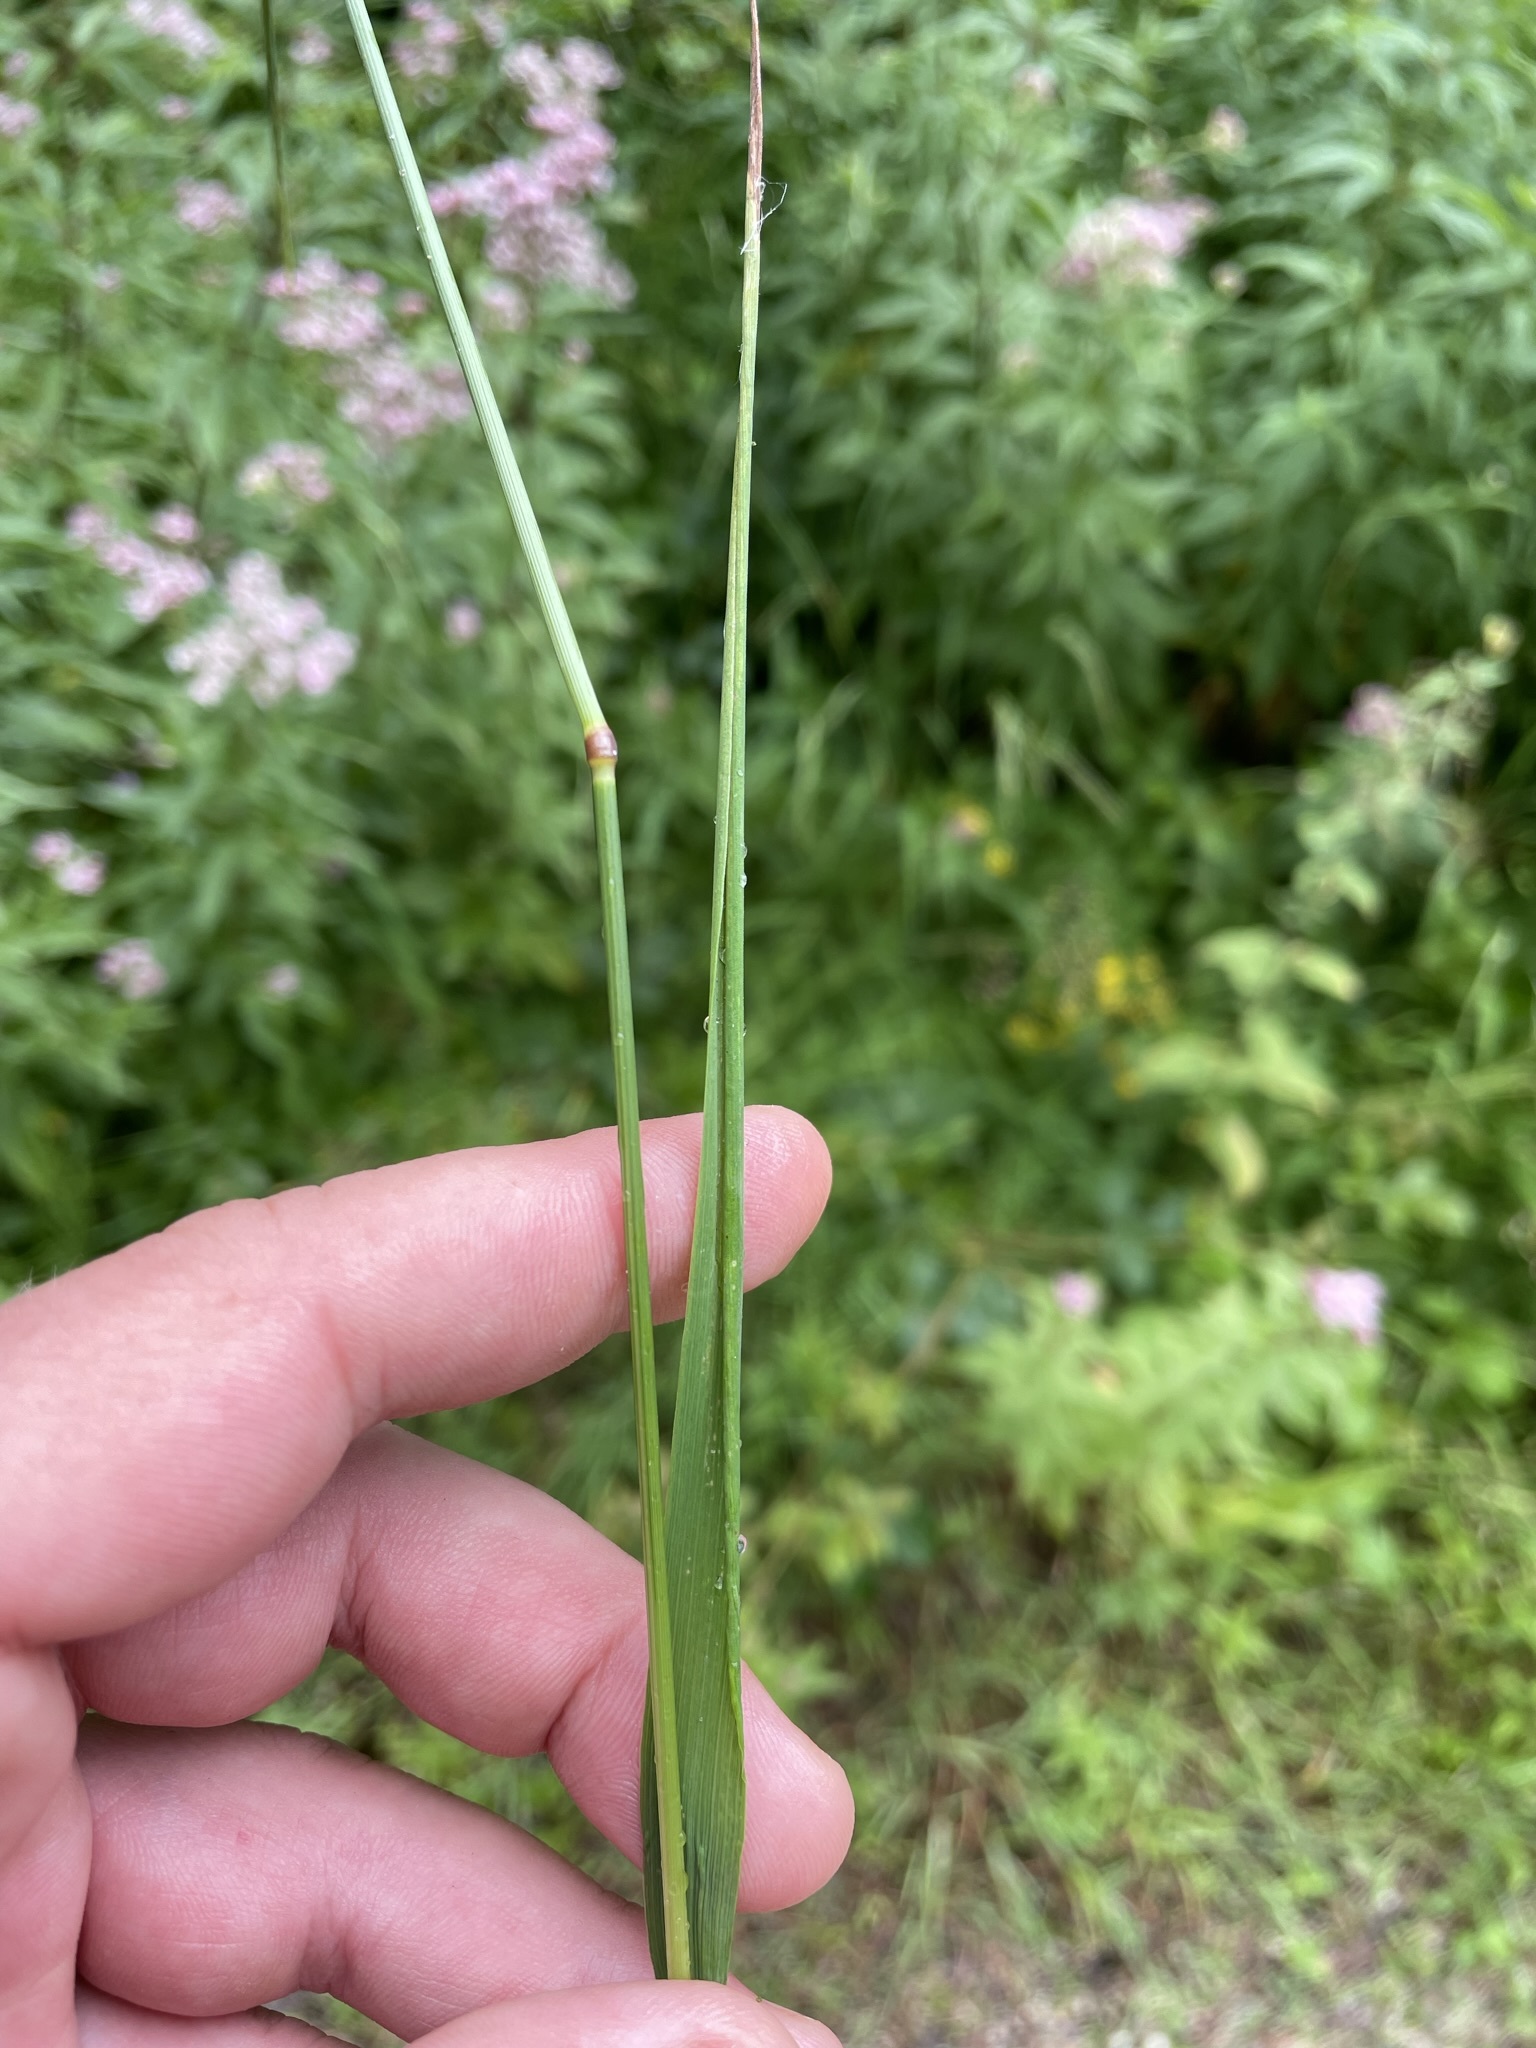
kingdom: Plantae
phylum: Tracheophyta
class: Liliopsida
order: Poales
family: Poaceae
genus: Agrostis
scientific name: Agrostis capillaris
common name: Colonial bentgrass
